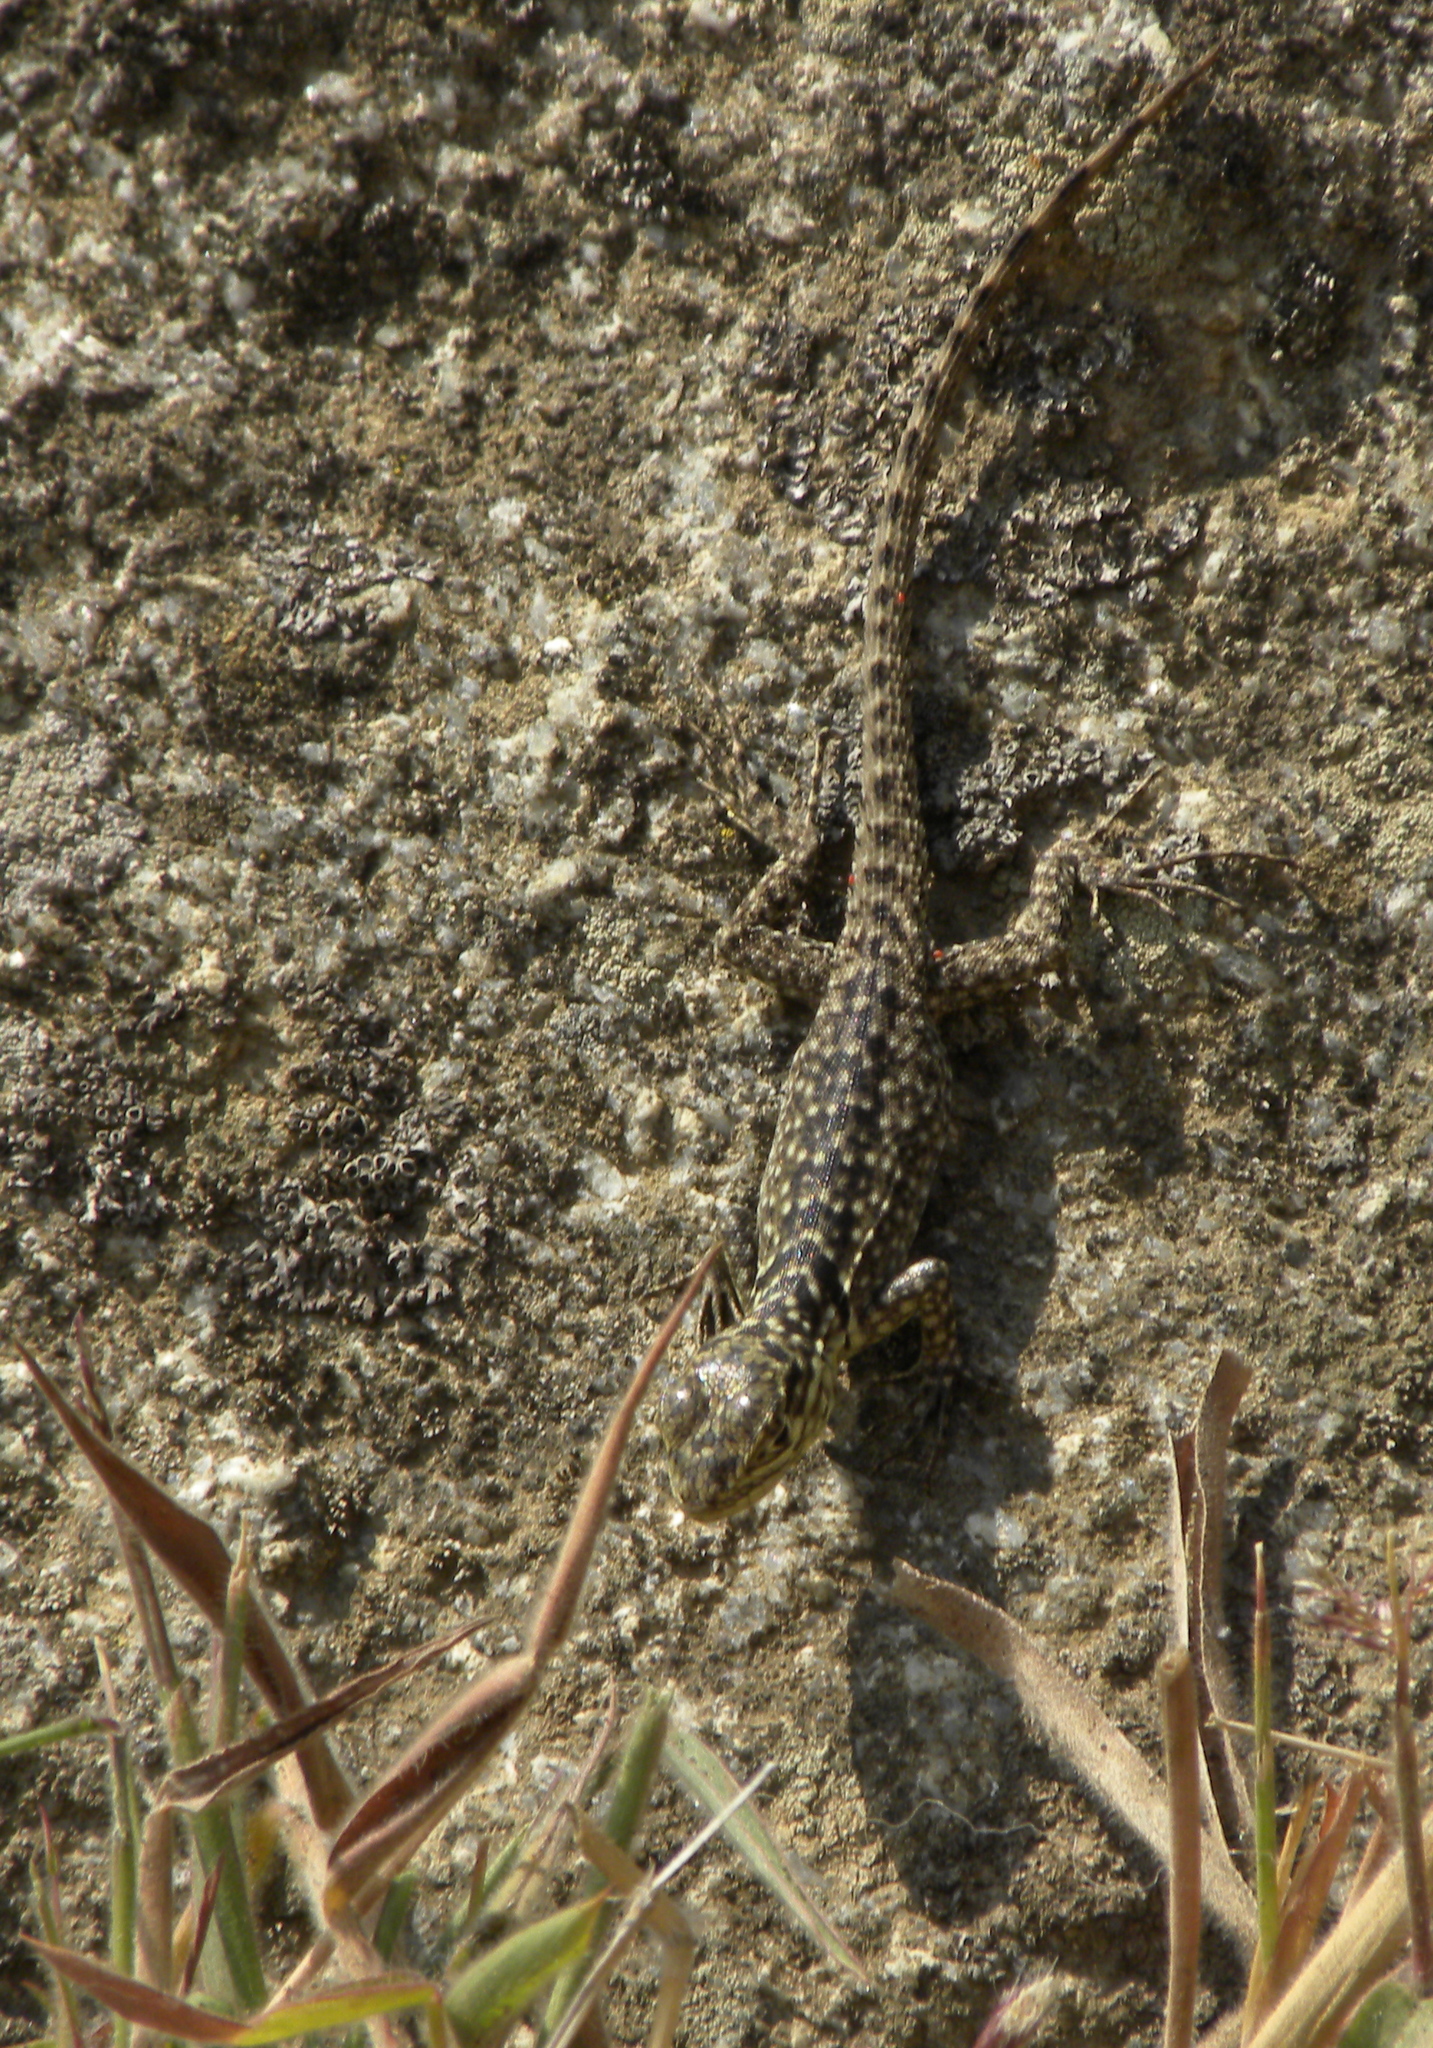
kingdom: Animalia
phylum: Chordata
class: Squamata
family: Tropiduridae
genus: Stenocercus
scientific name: Stenocercus crassicaudatus
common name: Spiny whorltail iguana
